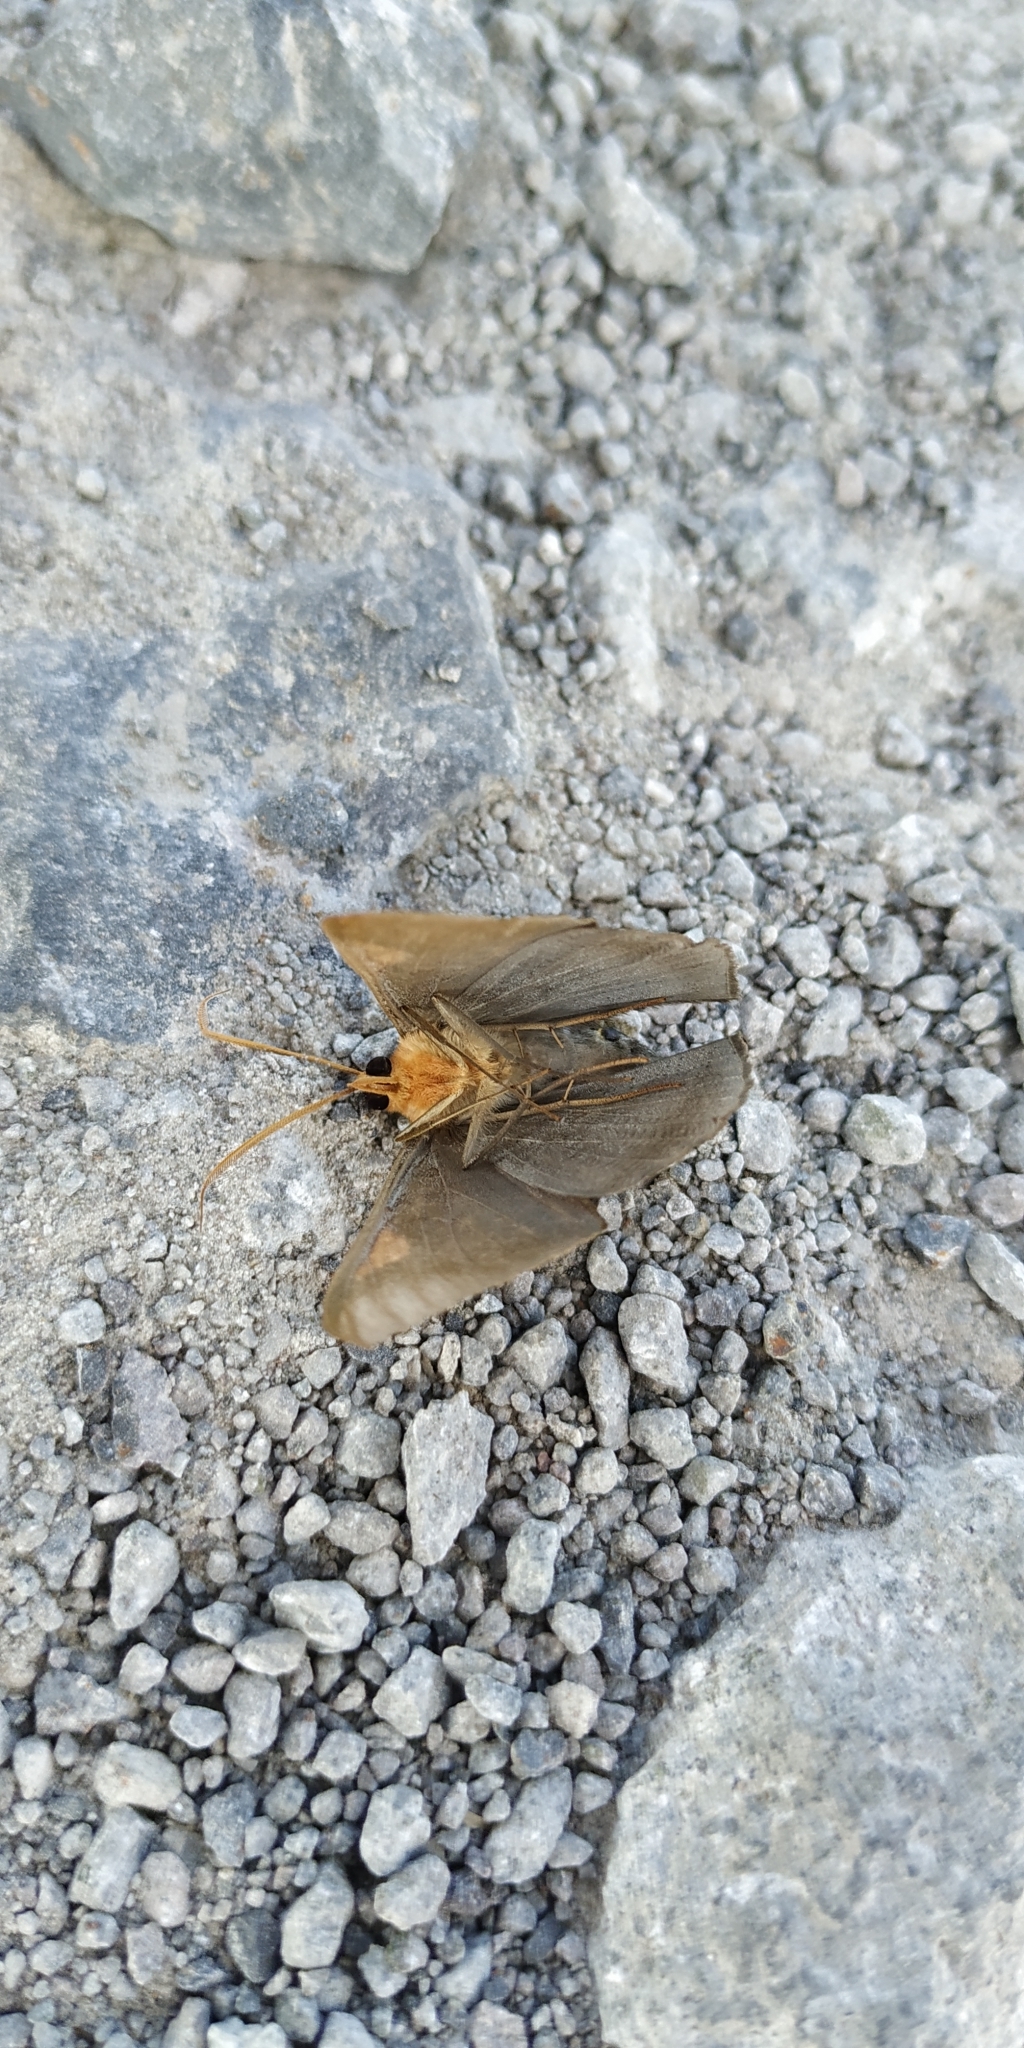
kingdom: Animalia
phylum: Arthropoda
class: Insecta
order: Lepidoptera
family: Geometridae
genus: Sphacelodes
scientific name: Sphacelodes vulneraria
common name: Looper moth
